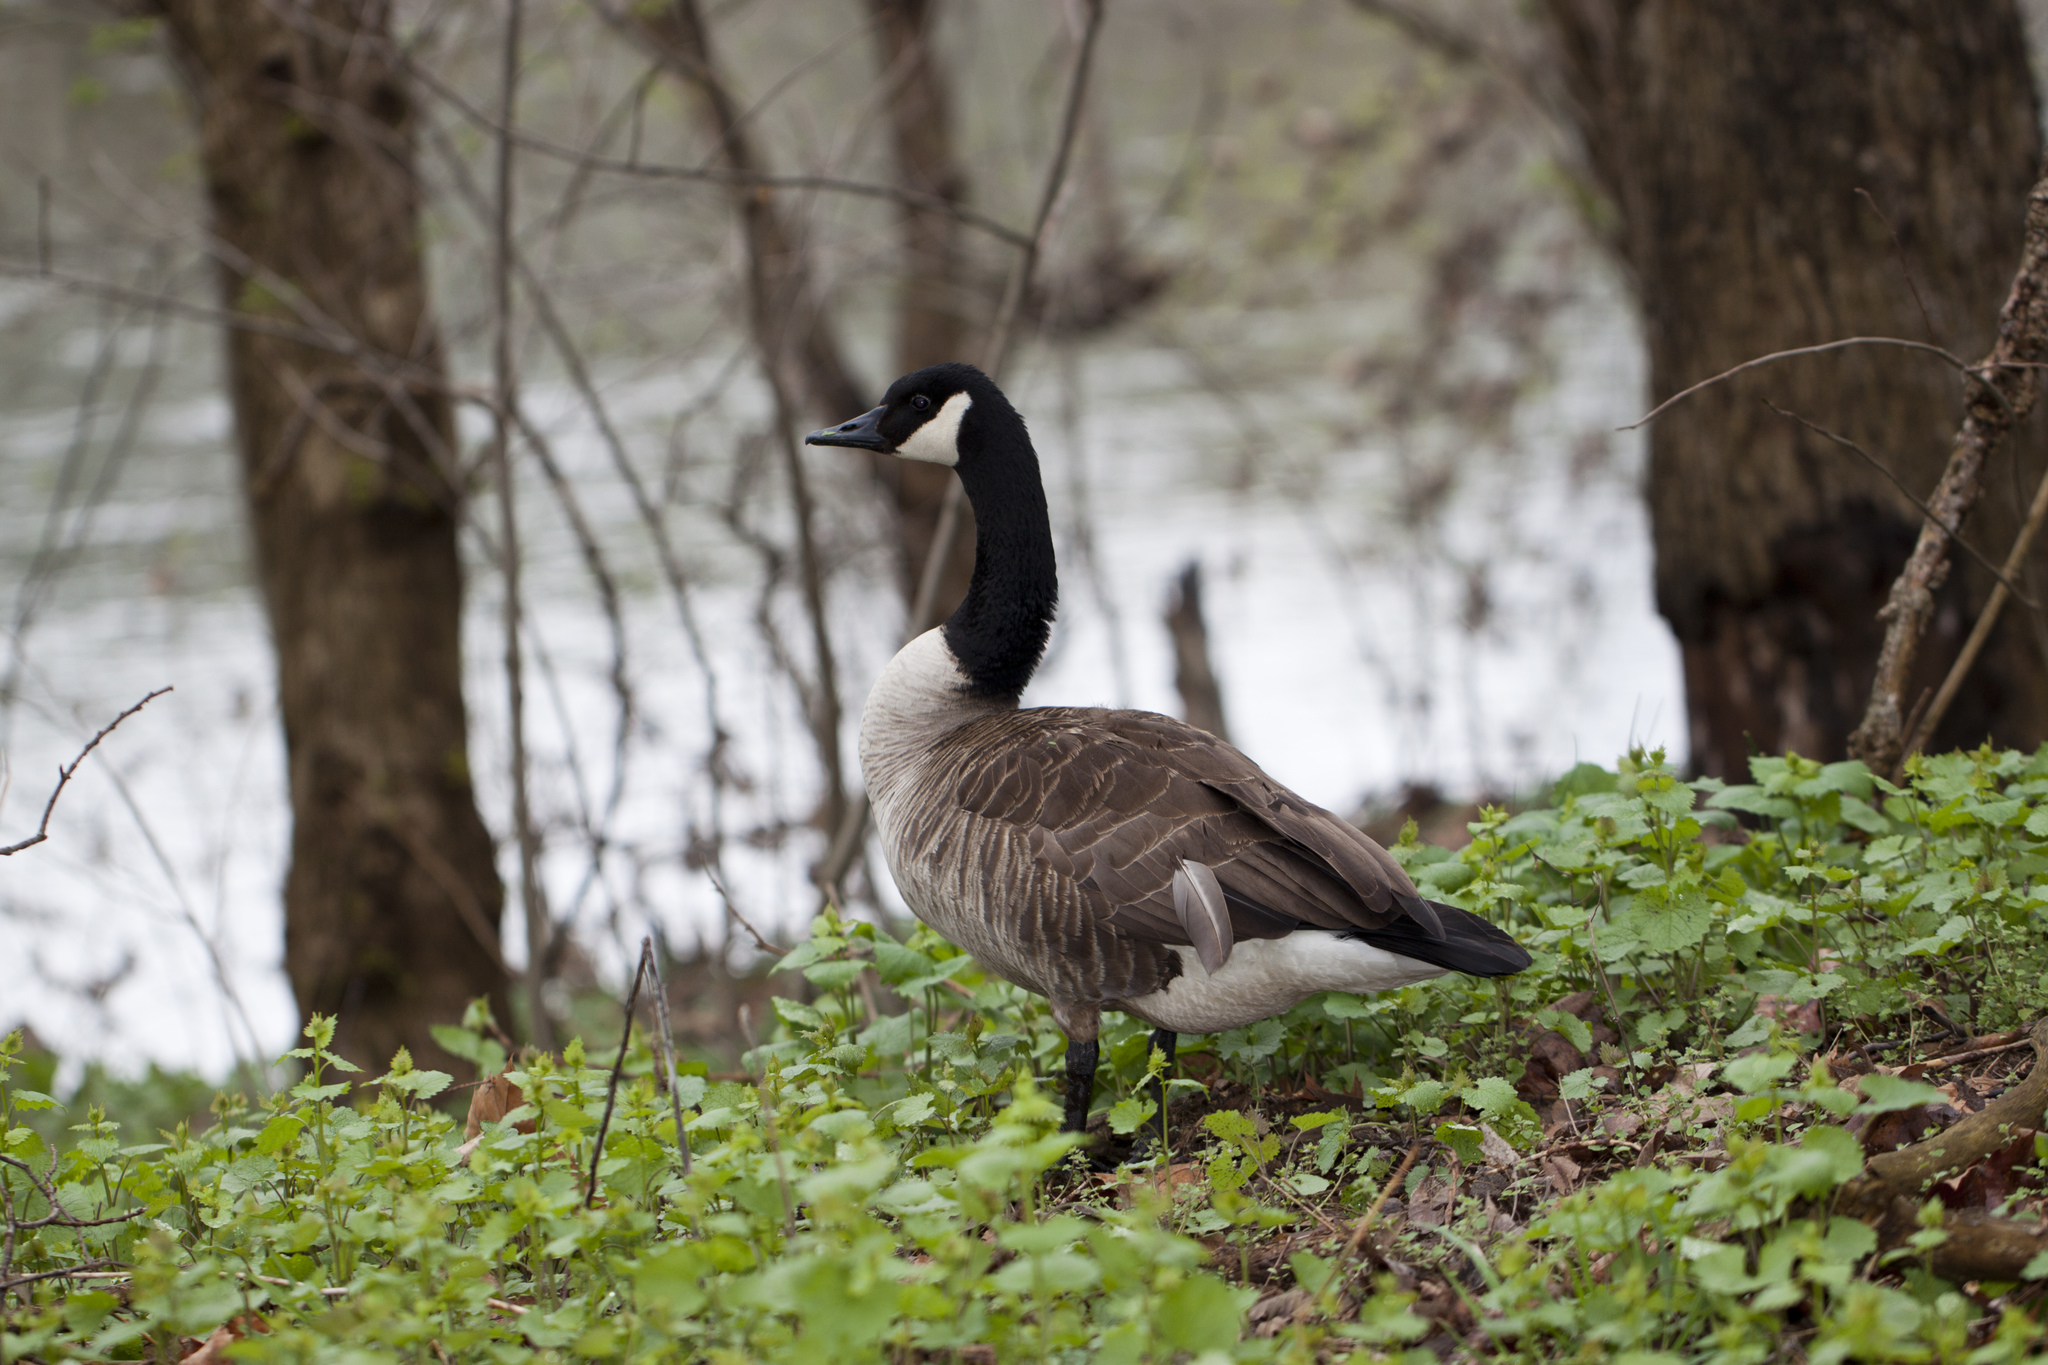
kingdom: Animalia
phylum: Chordata
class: Aves
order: Anseriformes
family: Anatidae
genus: Branta
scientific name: Branta canadensis
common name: Canada goose
